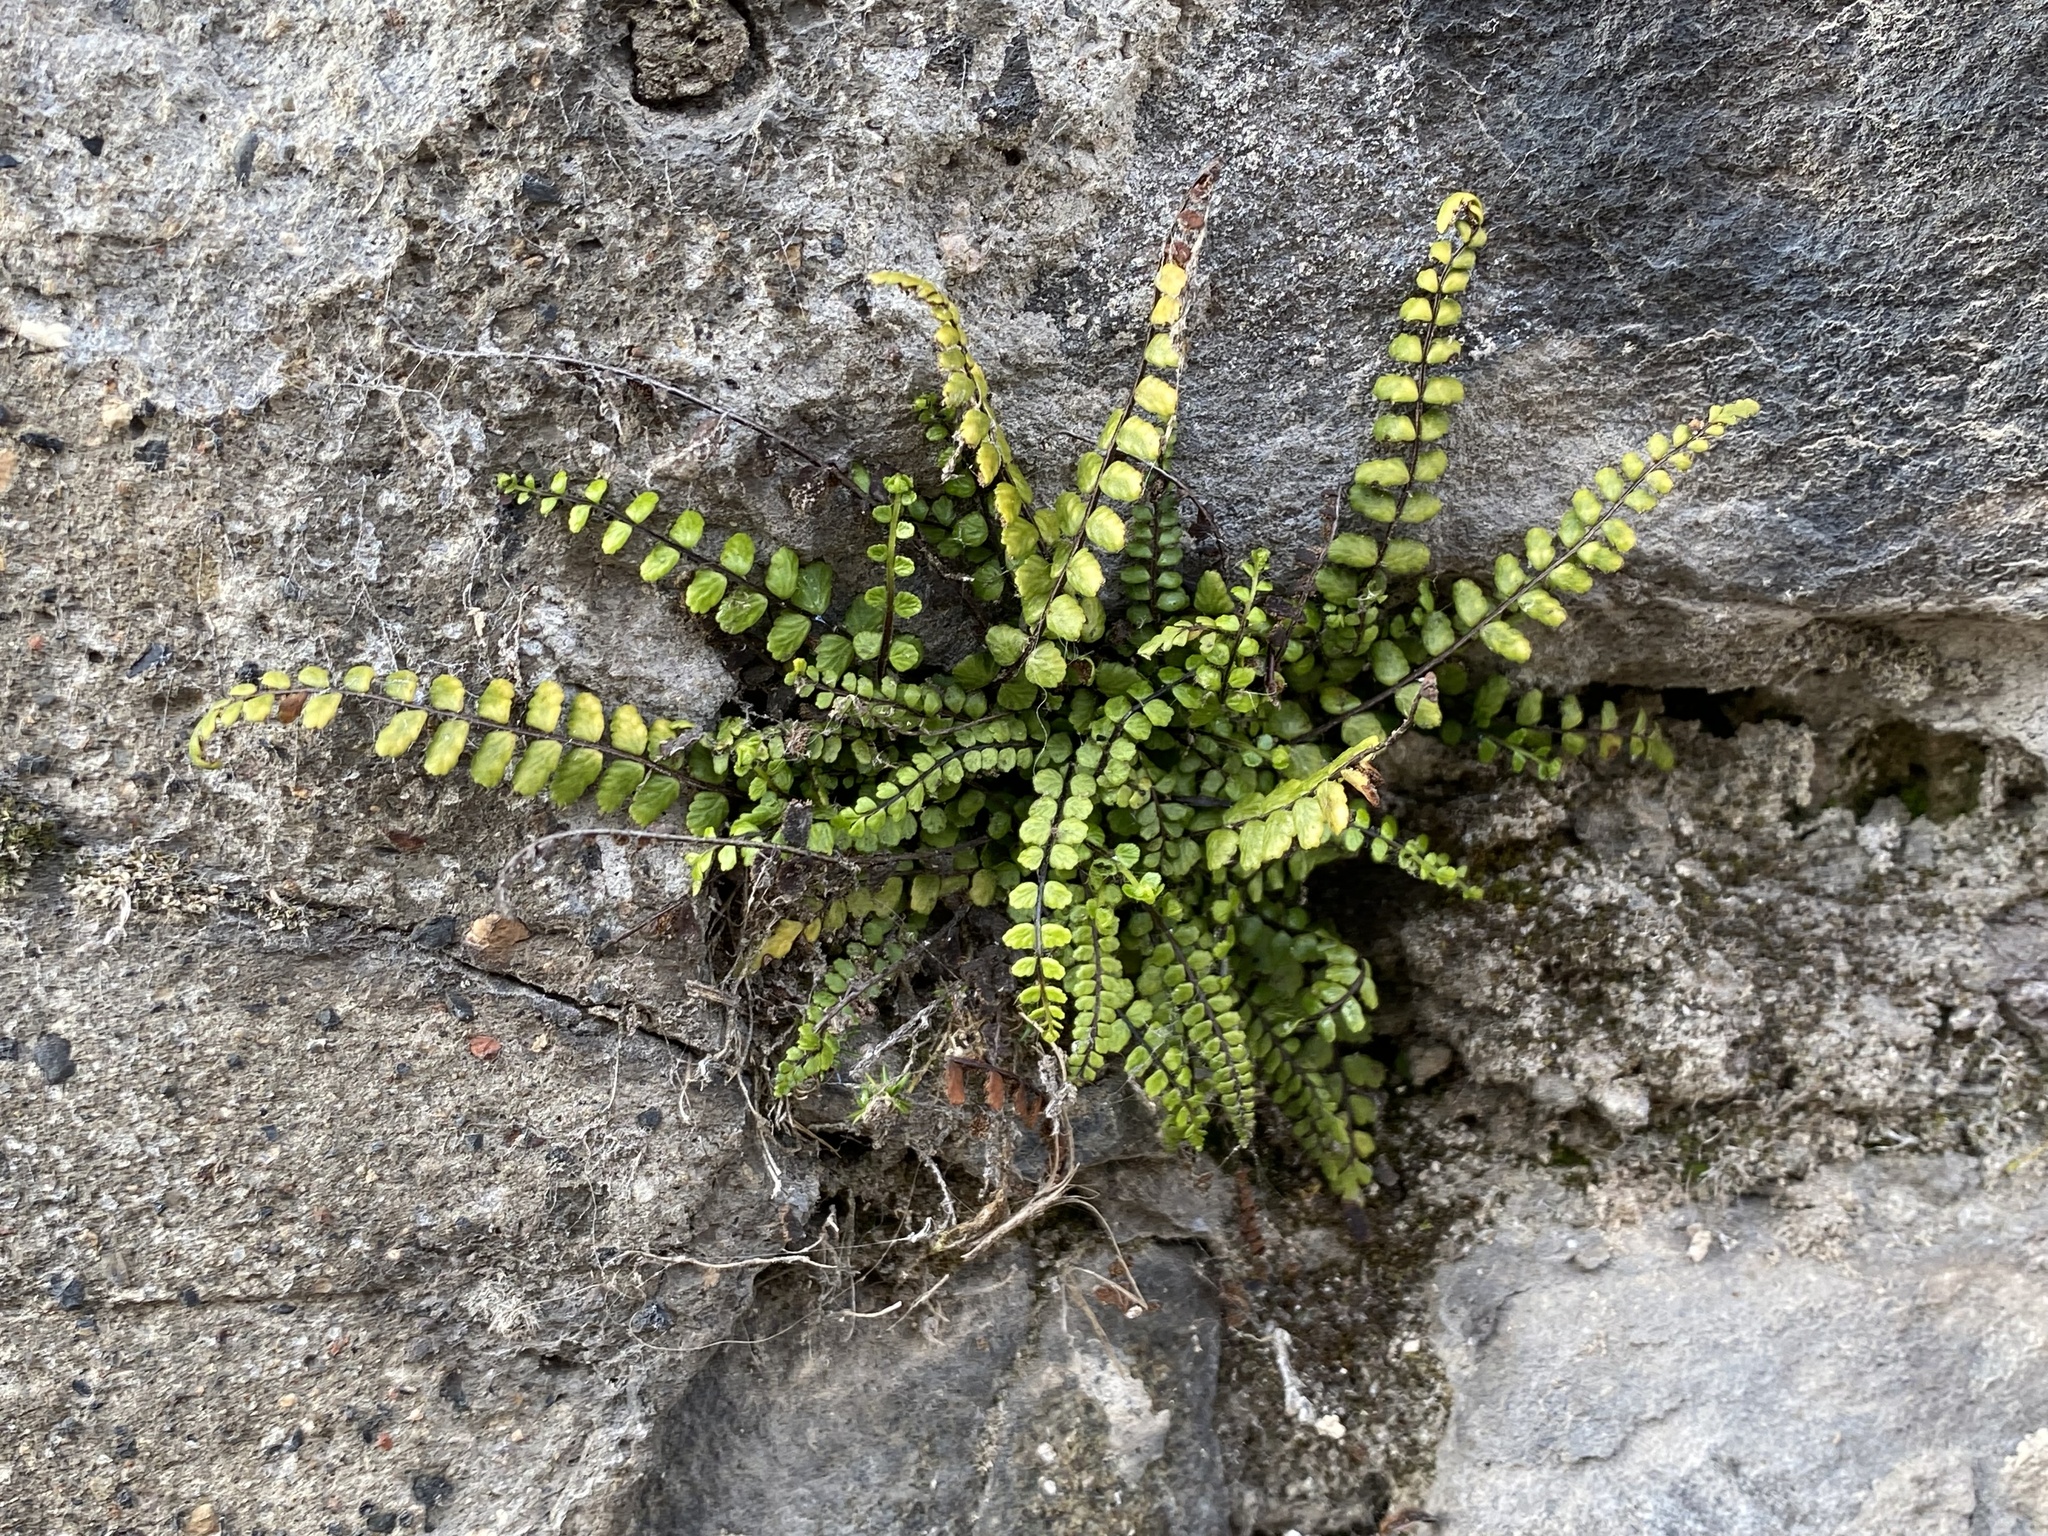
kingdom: Plantae
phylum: Tracheophyta
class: Polypodiopsida
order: Polypodiales
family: Aspleniaceae
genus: Asplenium
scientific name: Asplenium trichomanes
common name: Maidenhair spleenwort
